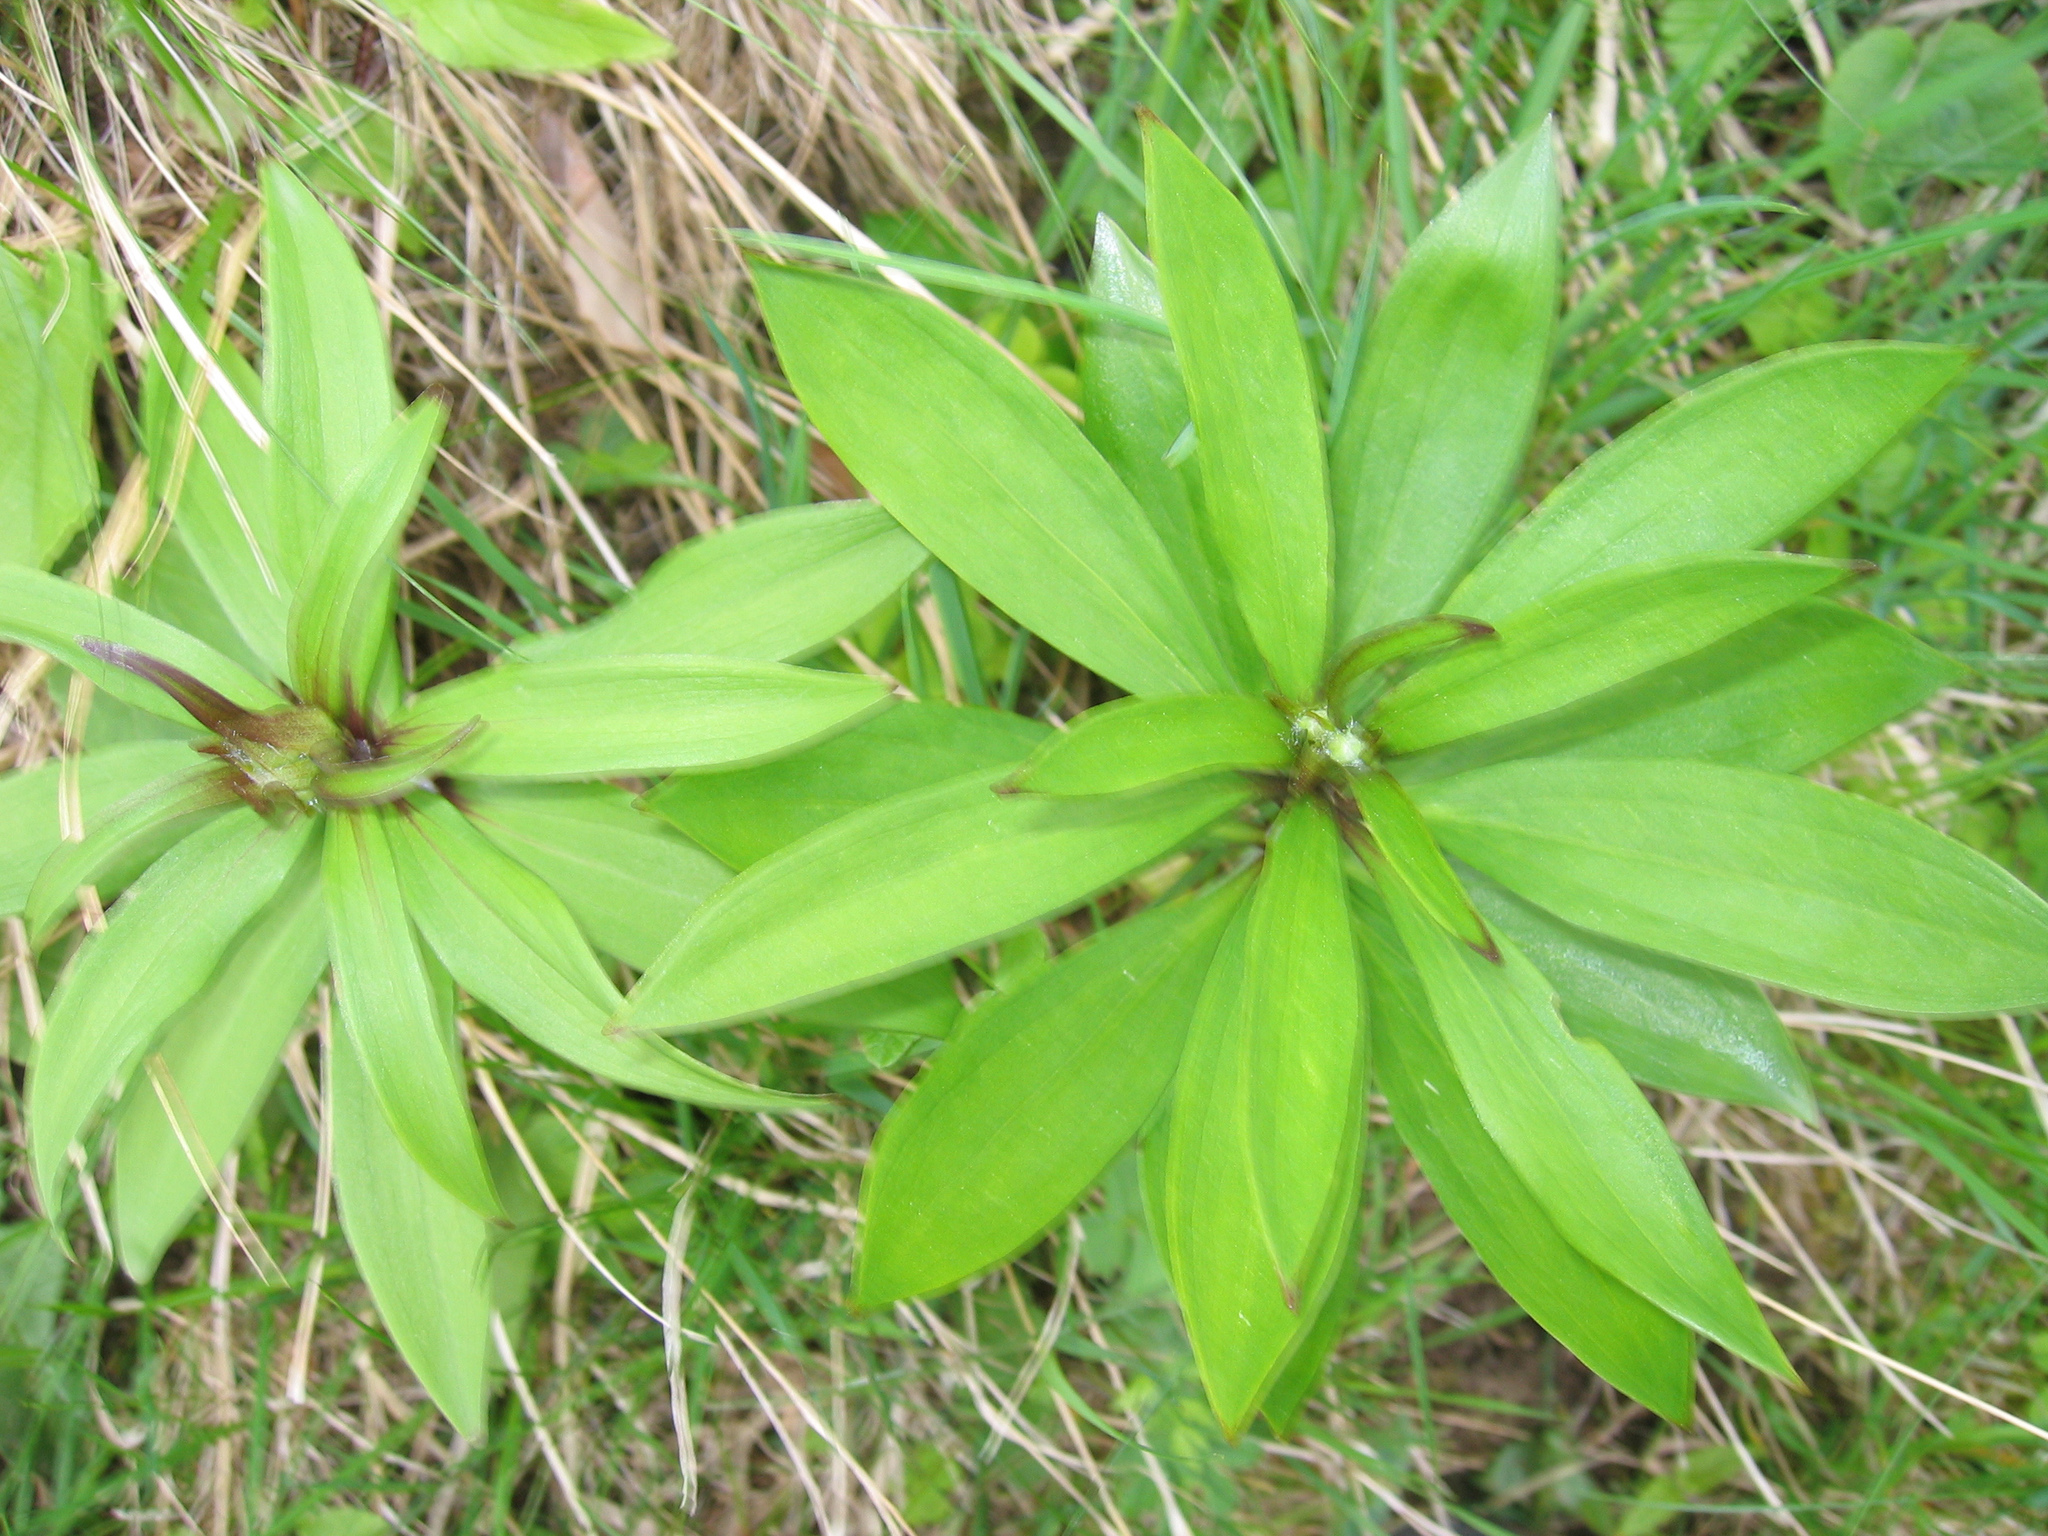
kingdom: Plantae
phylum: Tracheophyta
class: Liliopsida
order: Liliales
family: Liliaceae
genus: Lilium
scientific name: Lilium martagon
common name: Martagon lily
